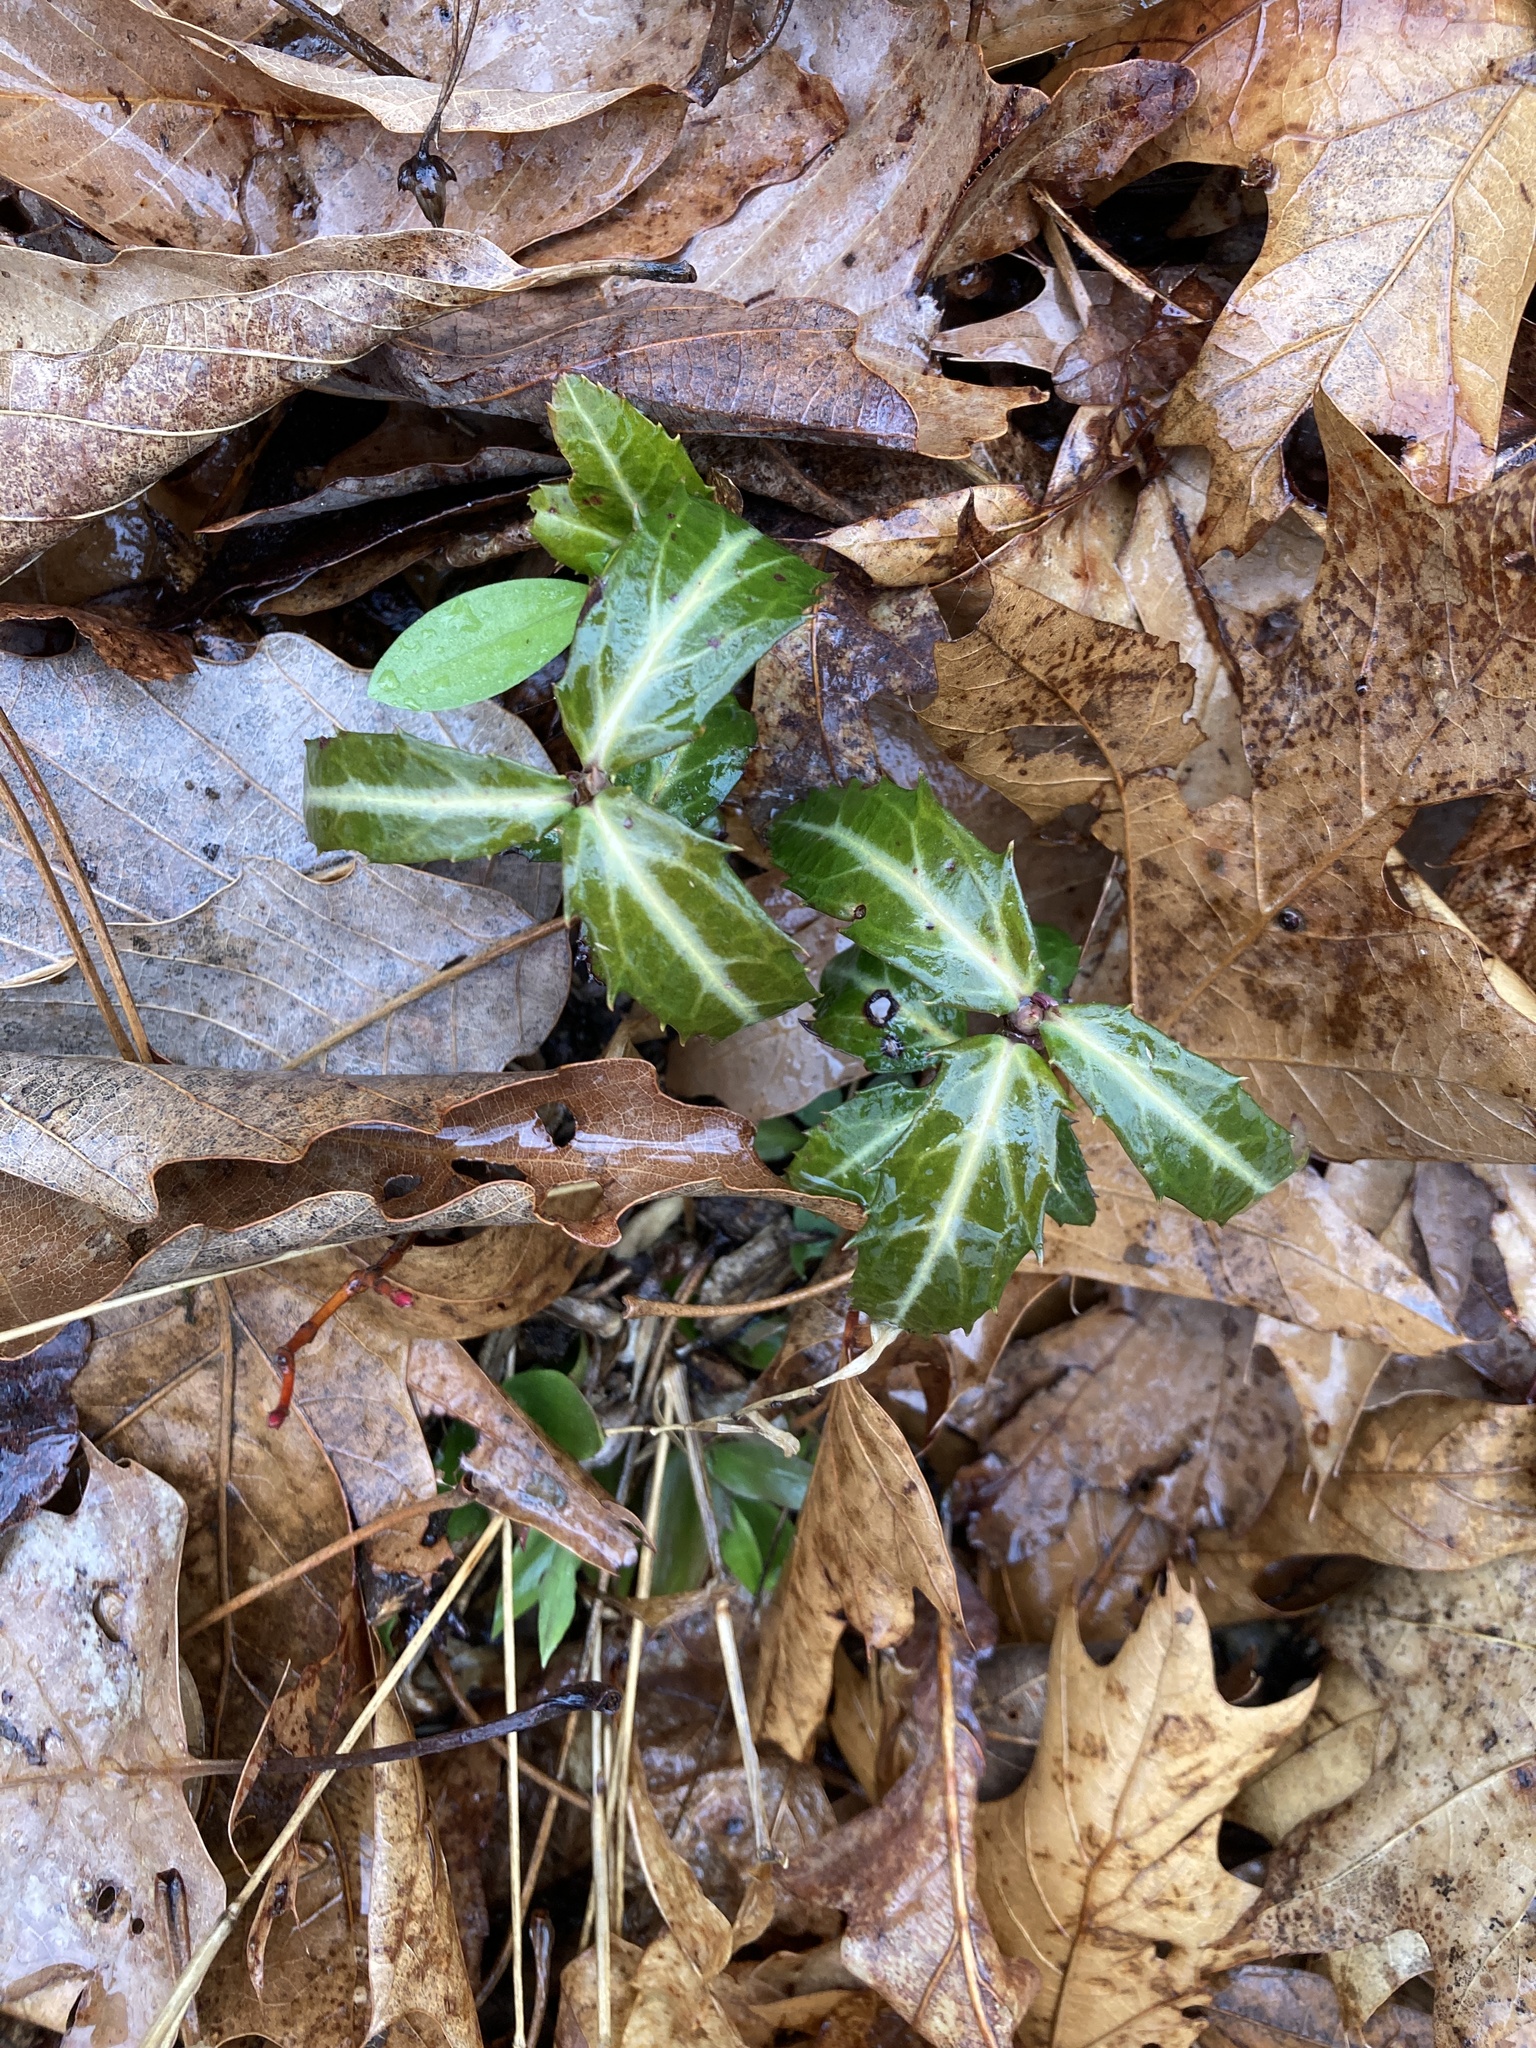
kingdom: Plantae
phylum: Tracheophyta
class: Magnoliopsida
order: Ericales
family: Ericaceae
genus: Chimaphila
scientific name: Chimaphila maculata
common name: Spotted pipsissewa
